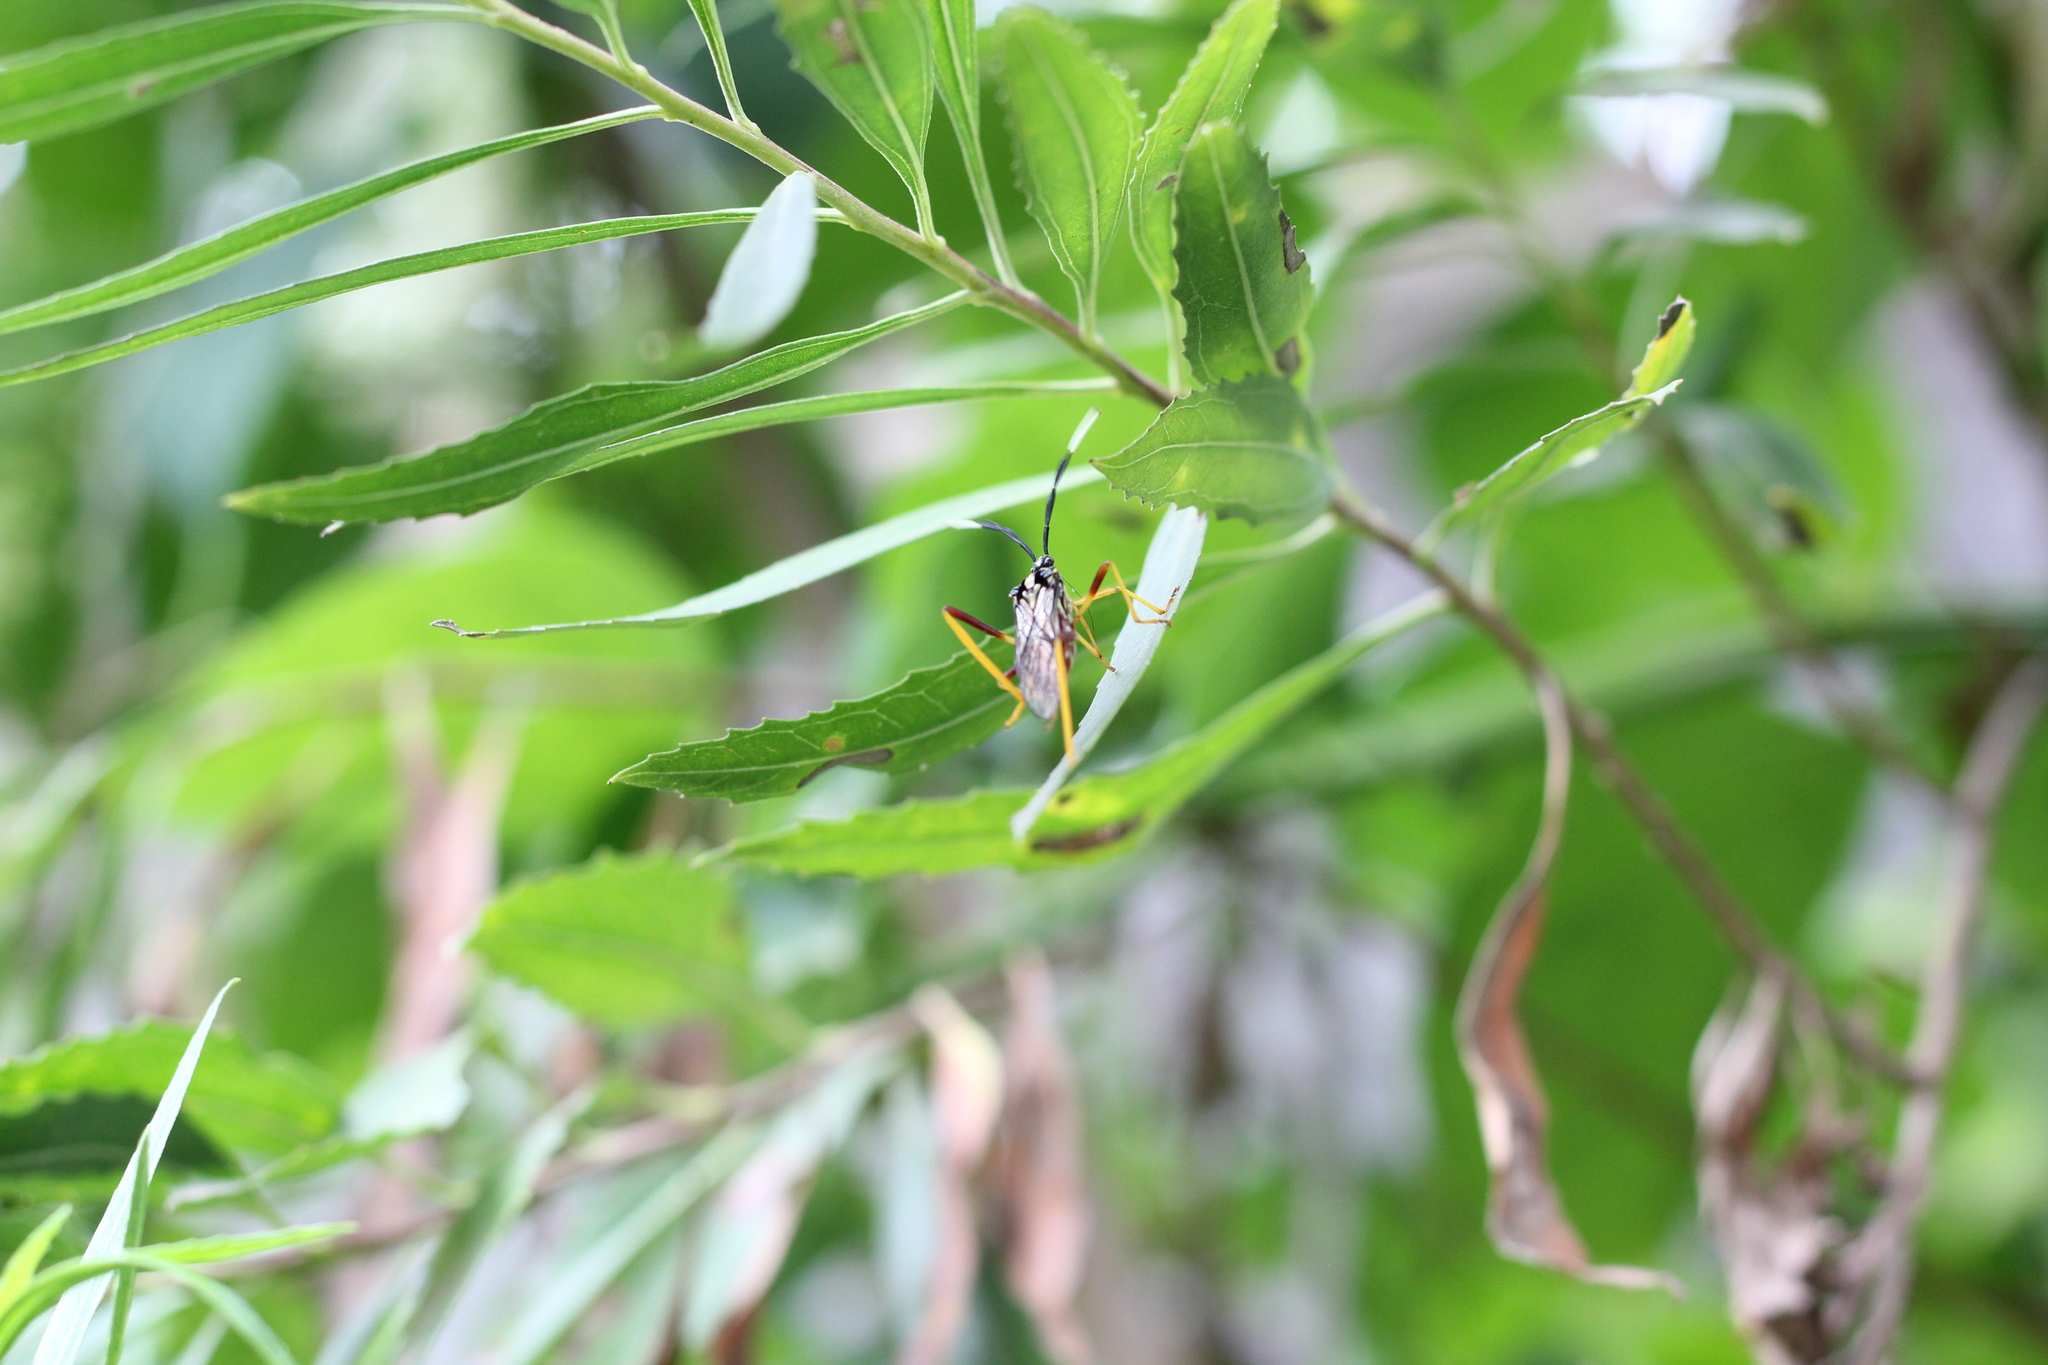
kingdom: Animalia
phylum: Arthropoda
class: Insecta
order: Hemiptera
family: Coreidae
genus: Holhymenia
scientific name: Holhymenia histrio
